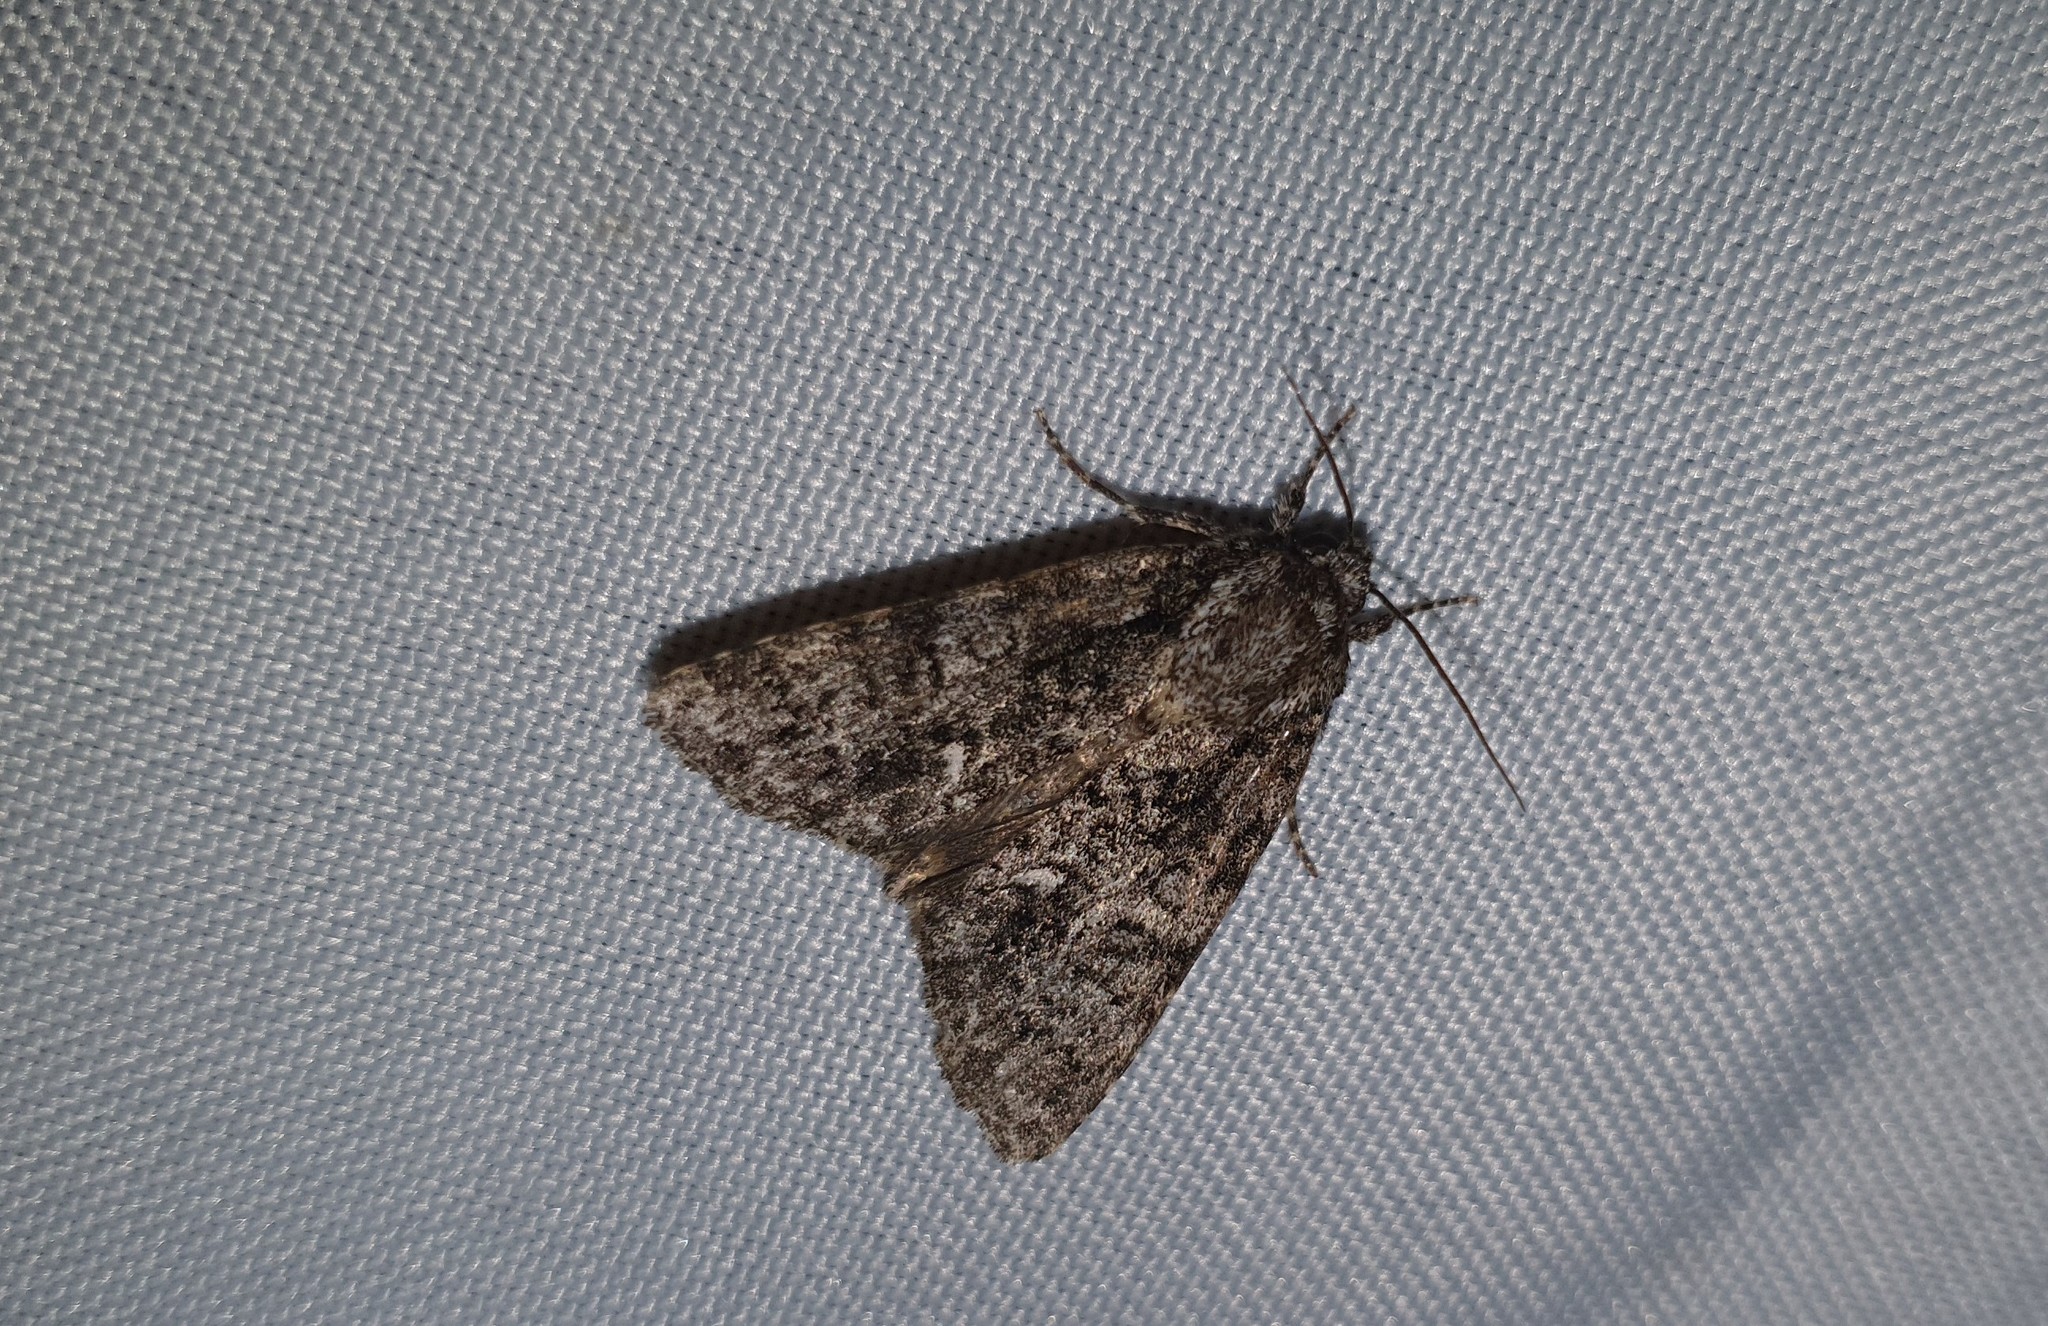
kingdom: Animalia
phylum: Arthropoda
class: Insecta
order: Lepidoptera
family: Noctuidae
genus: Acronicta
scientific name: Acronicta rumicis
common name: Knot grass
